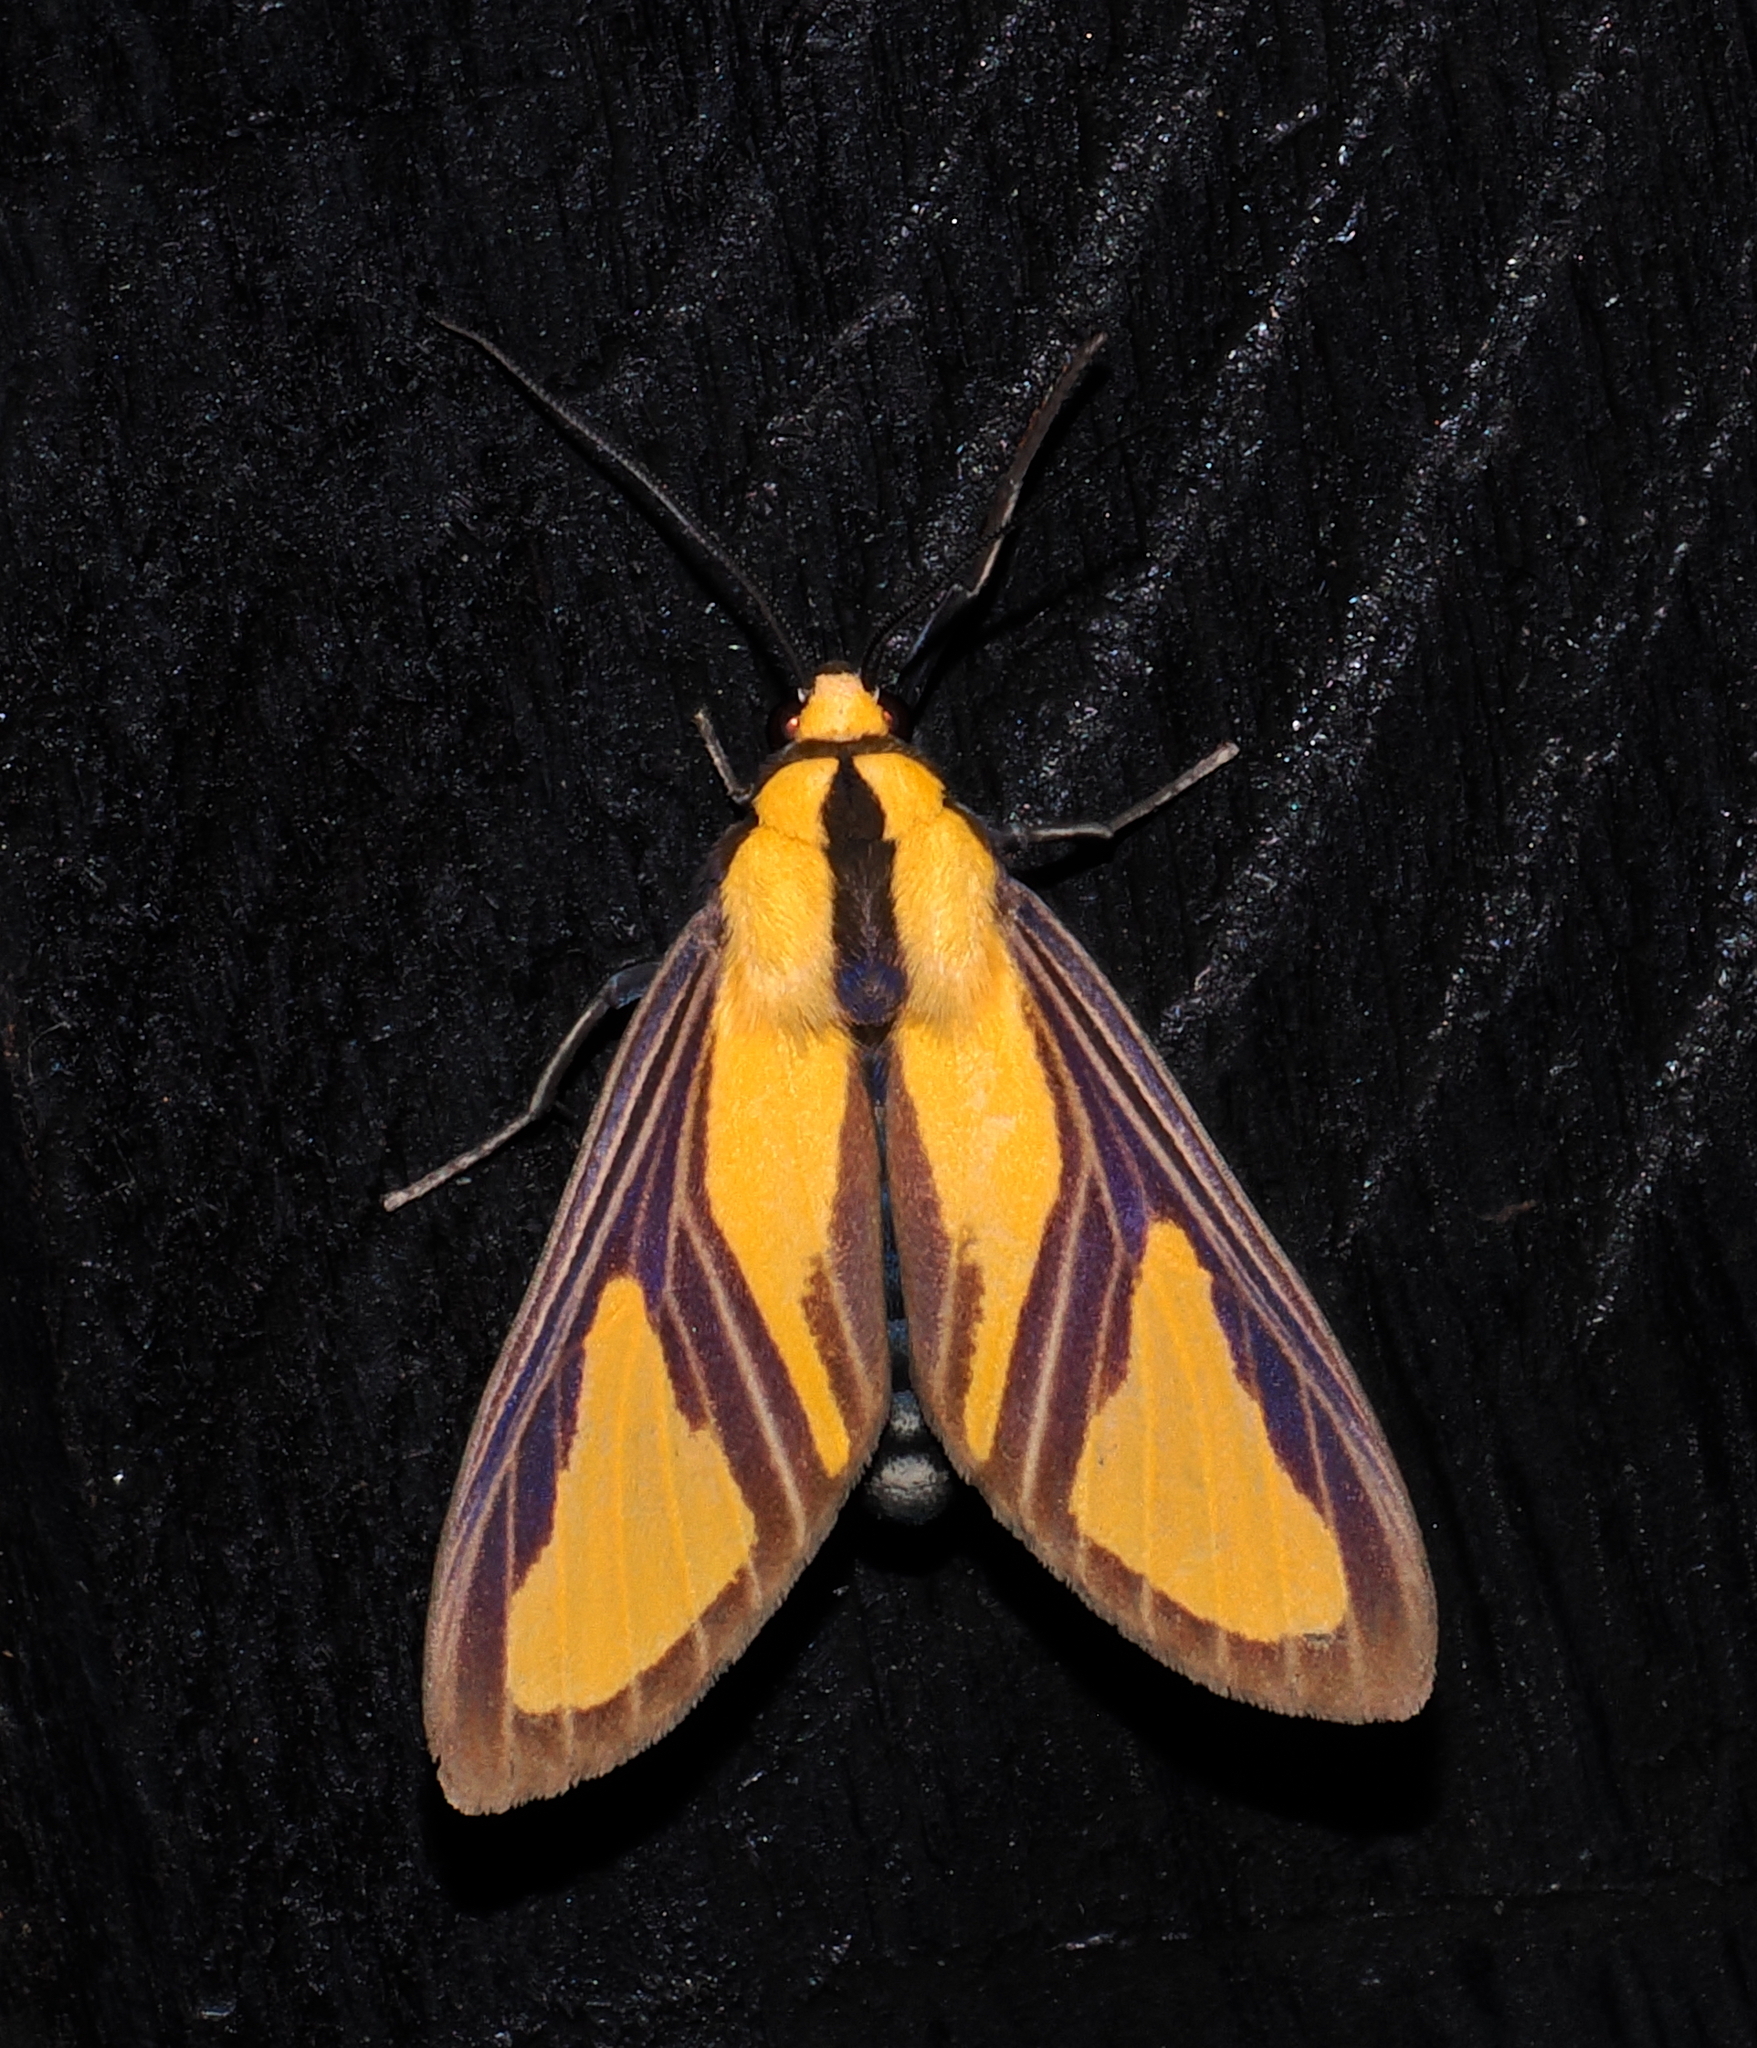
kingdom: Animalia
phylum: Arthropoda
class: Insecta
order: Lepidoptera
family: Erebidae
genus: Xanthoarctia
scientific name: Xanthoarctia pseudameoides
